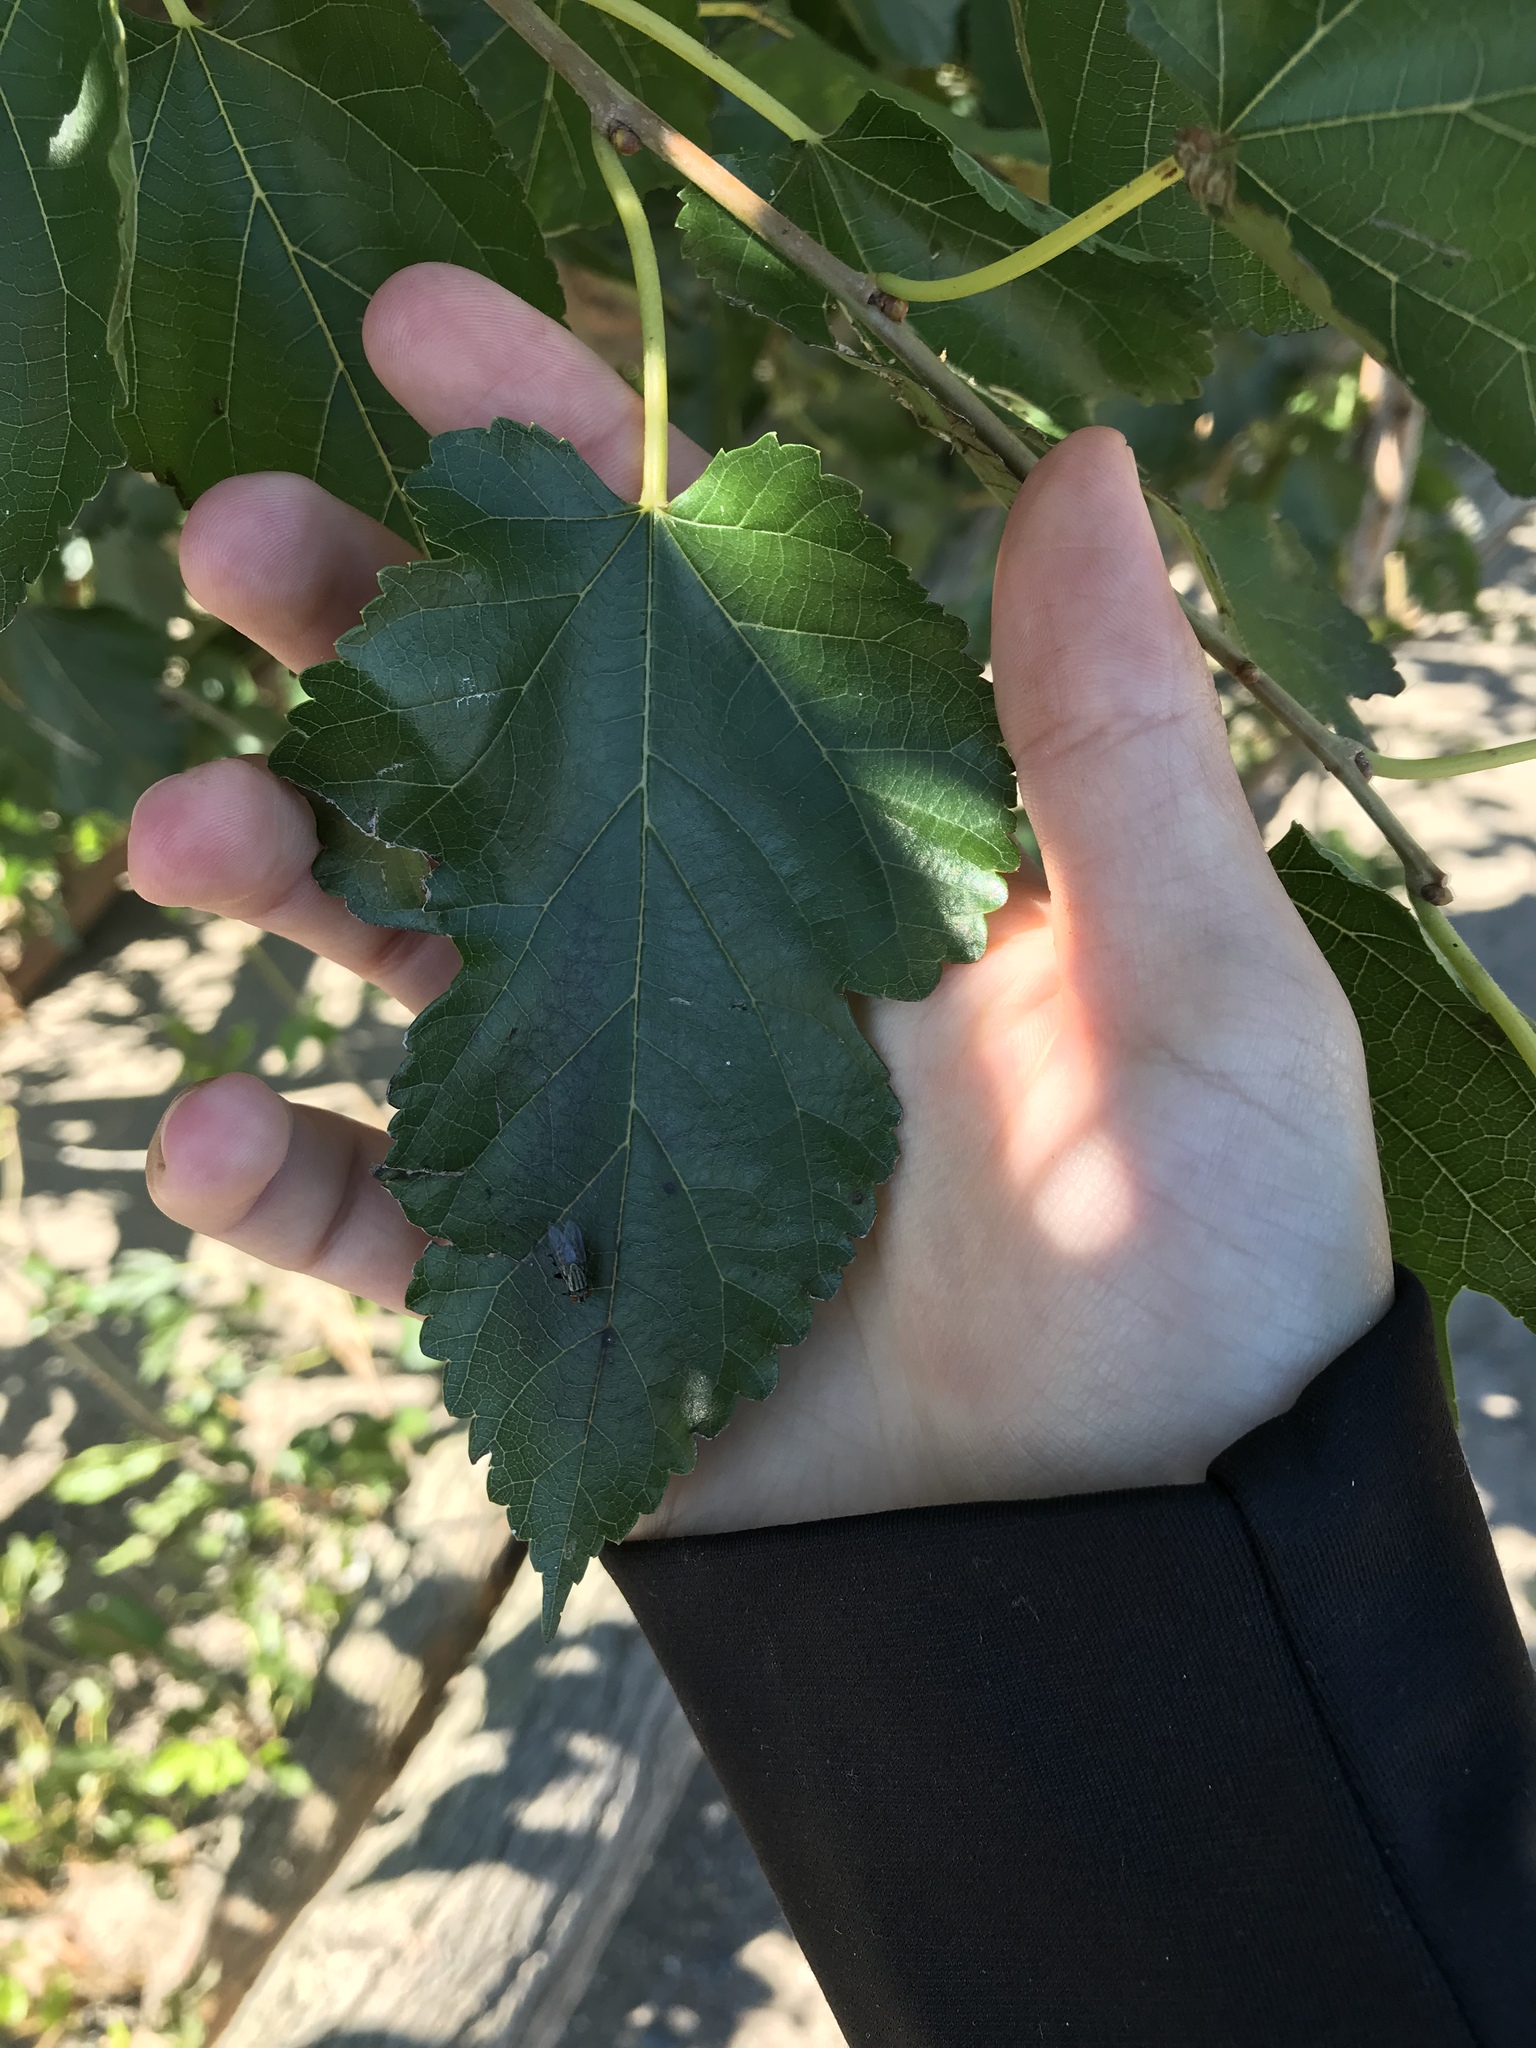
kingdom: Plantae
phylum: Tracheophyta
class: Magnoliopsida
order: Rosales
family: Moraceae
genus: Morus
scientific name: Morus alba
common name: White mulberry
